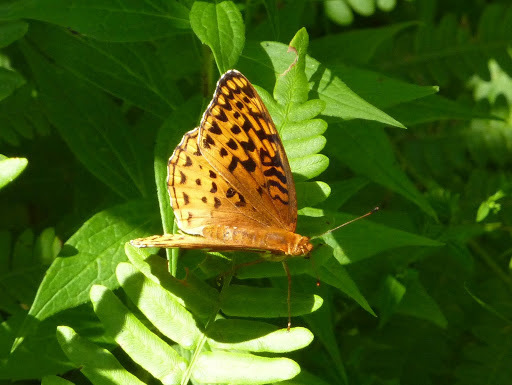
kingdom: Animalia
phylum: Arthropoda
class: Insecta
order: Lepidoptera
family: Nymphalidae
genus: Speyeria
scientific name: Speyeria aphrodite
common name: Aphrodite friitllary
